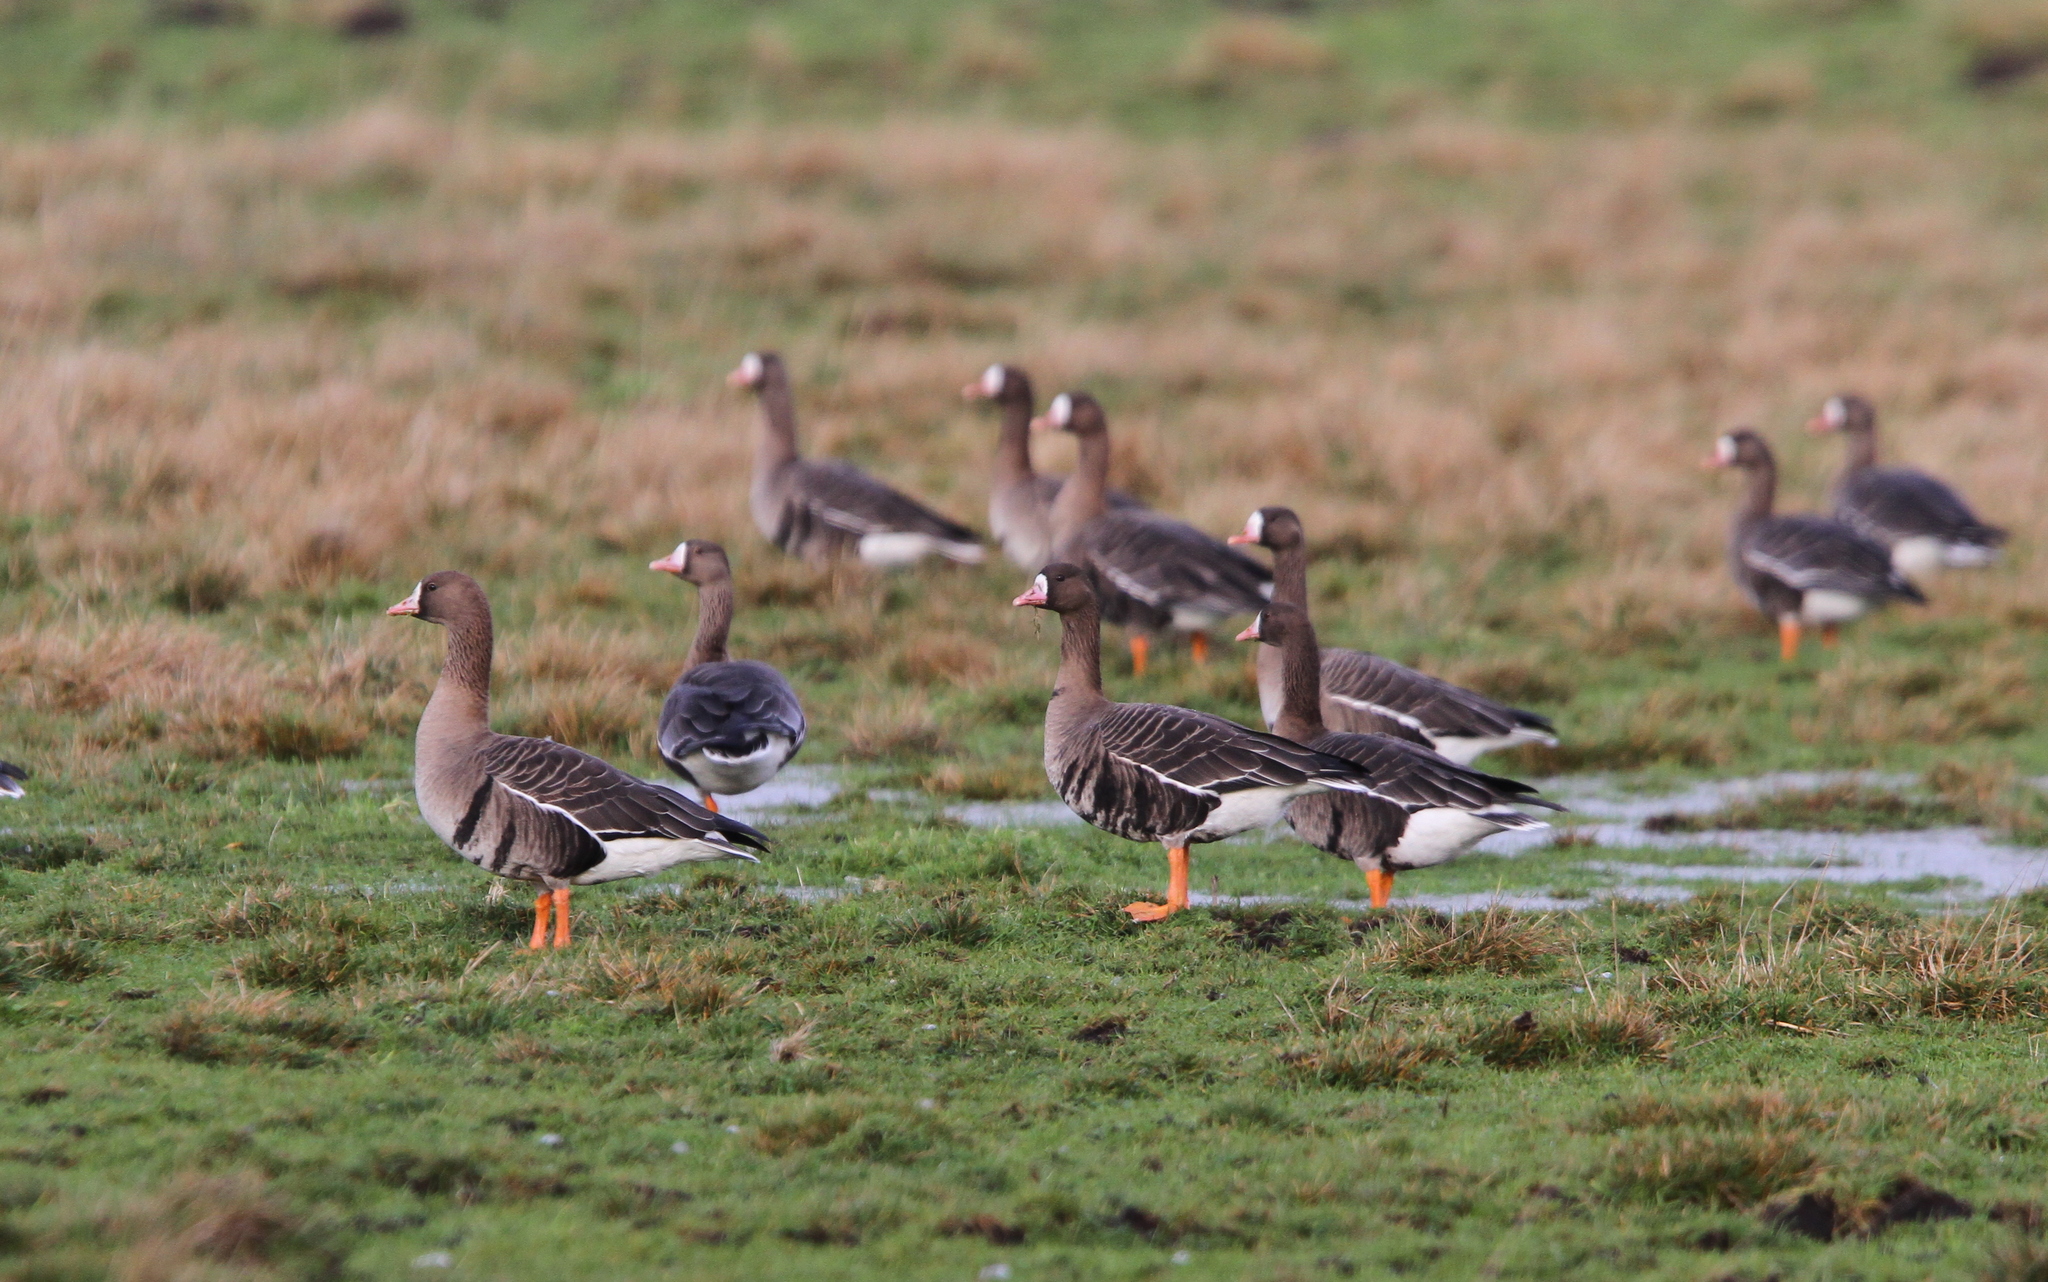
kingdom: Animalia
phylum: Chordata
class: Aves
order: Anseriformes
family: Anatidae
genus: Anser
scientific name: Anser albifrons
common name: Greater white-fronted goose
